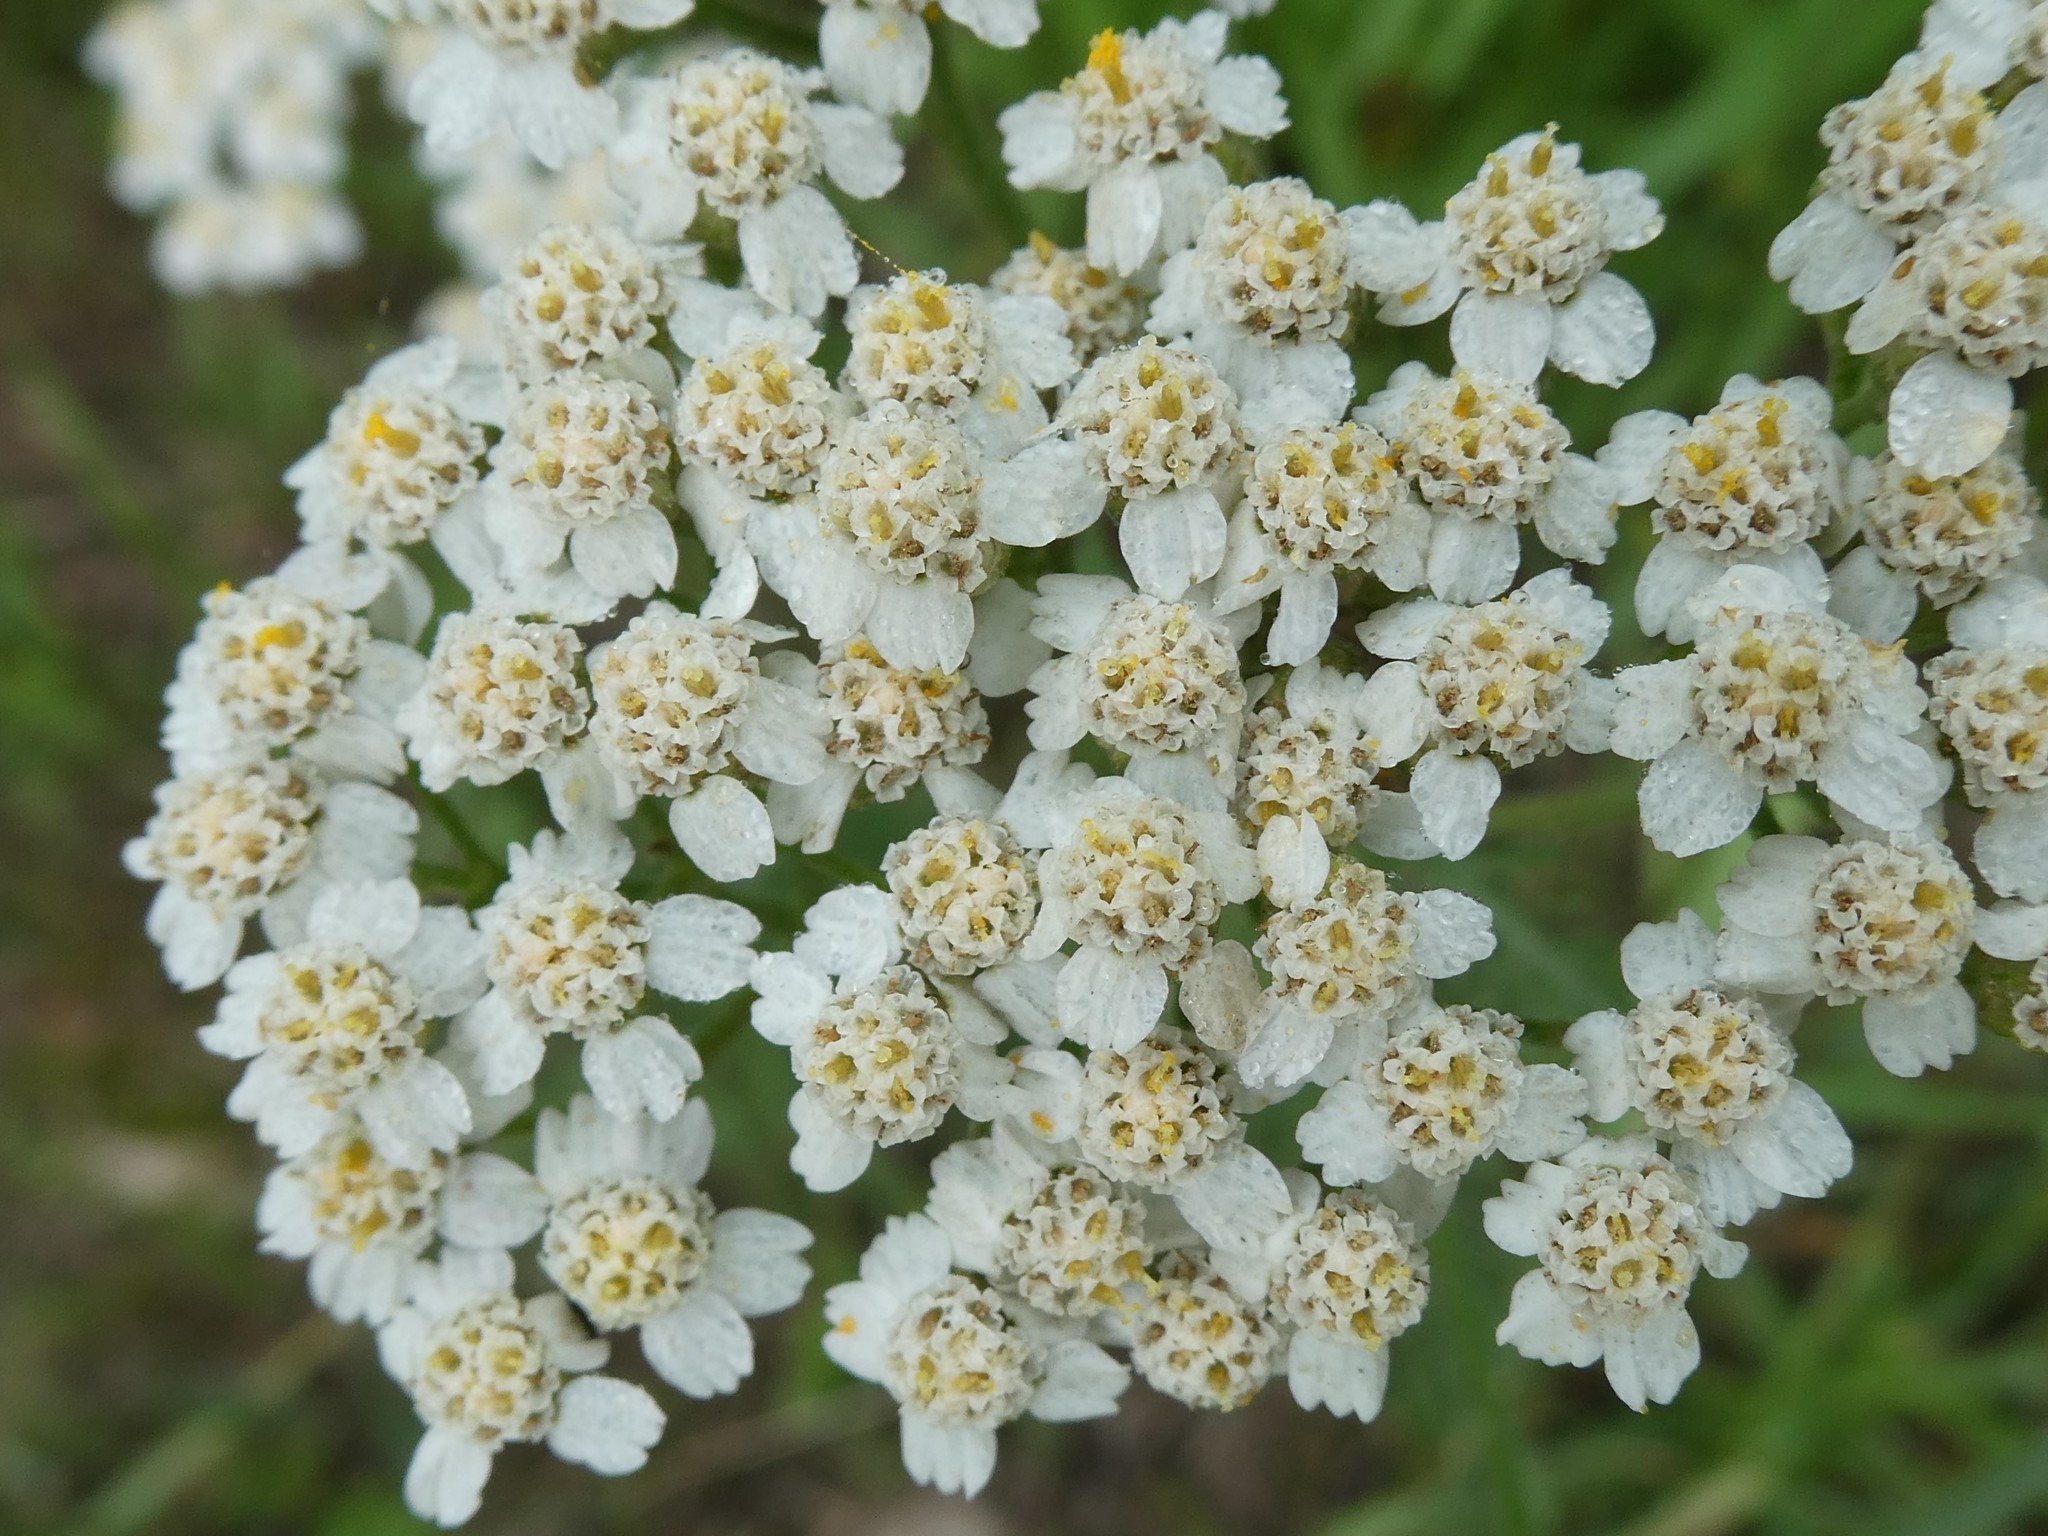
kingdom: Plantae
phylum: Tracheophyta
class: Magnoliopsida
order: Asterales
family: Asteraceae
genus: Achillea
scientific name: Achillea millefolium
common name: Yarrow
